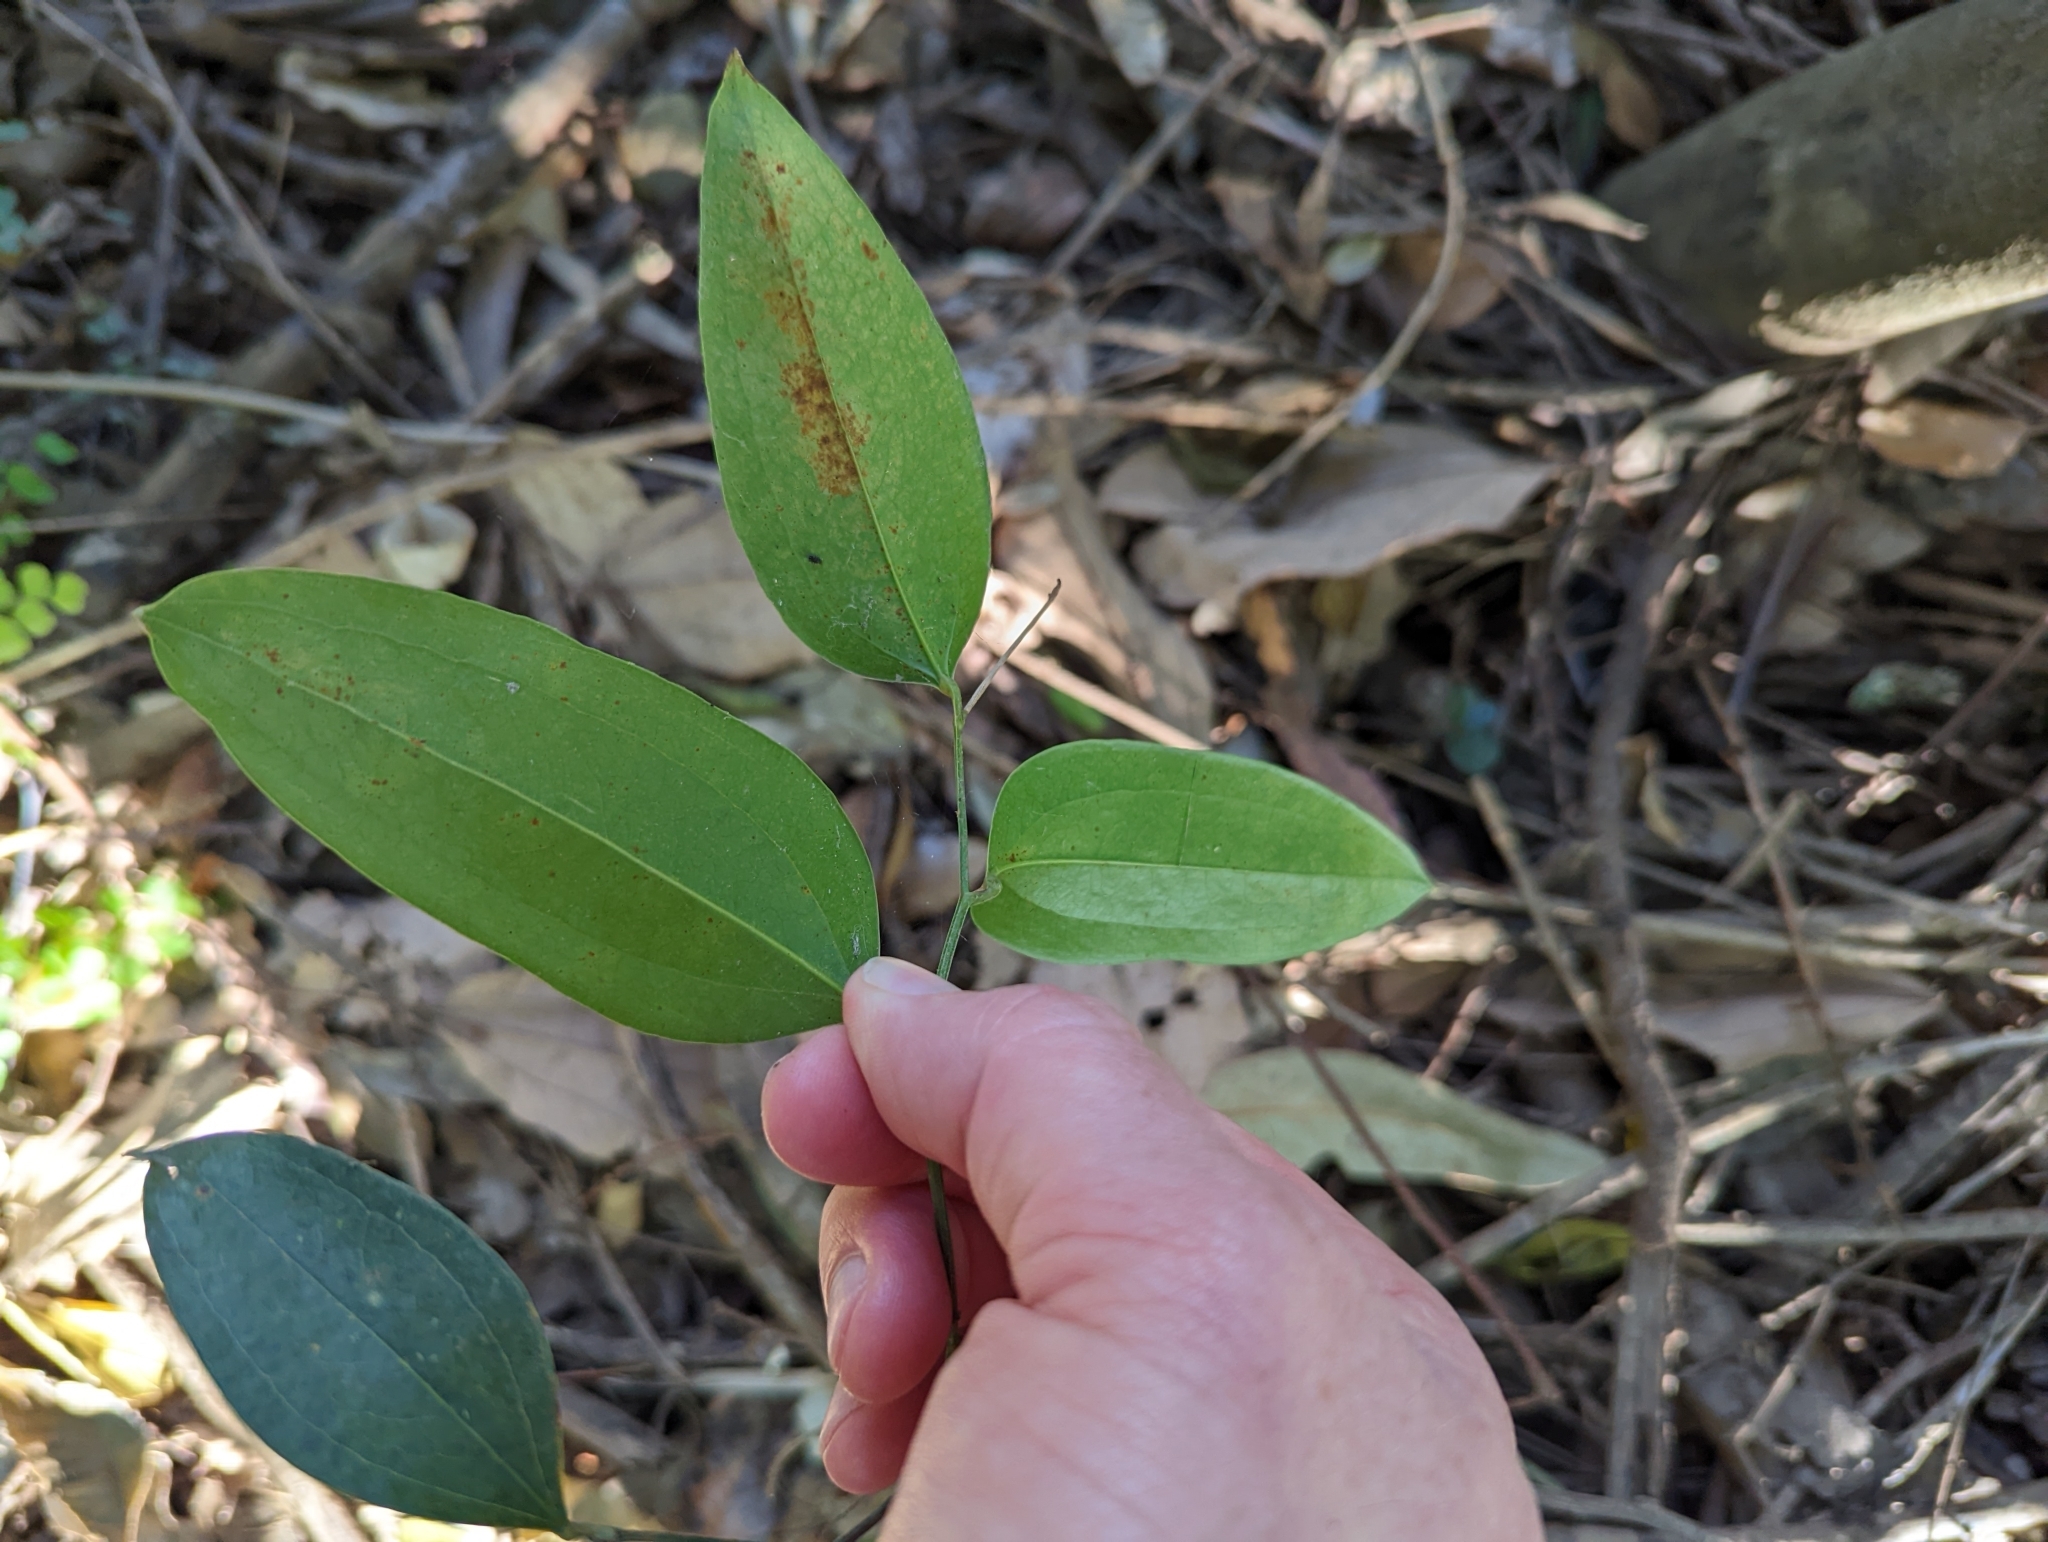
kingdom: Plantae
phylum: Tracheophyta
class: Liliopsida
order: Liliales
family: Smilacaceae
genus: Smilax
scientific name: Smilax australis
